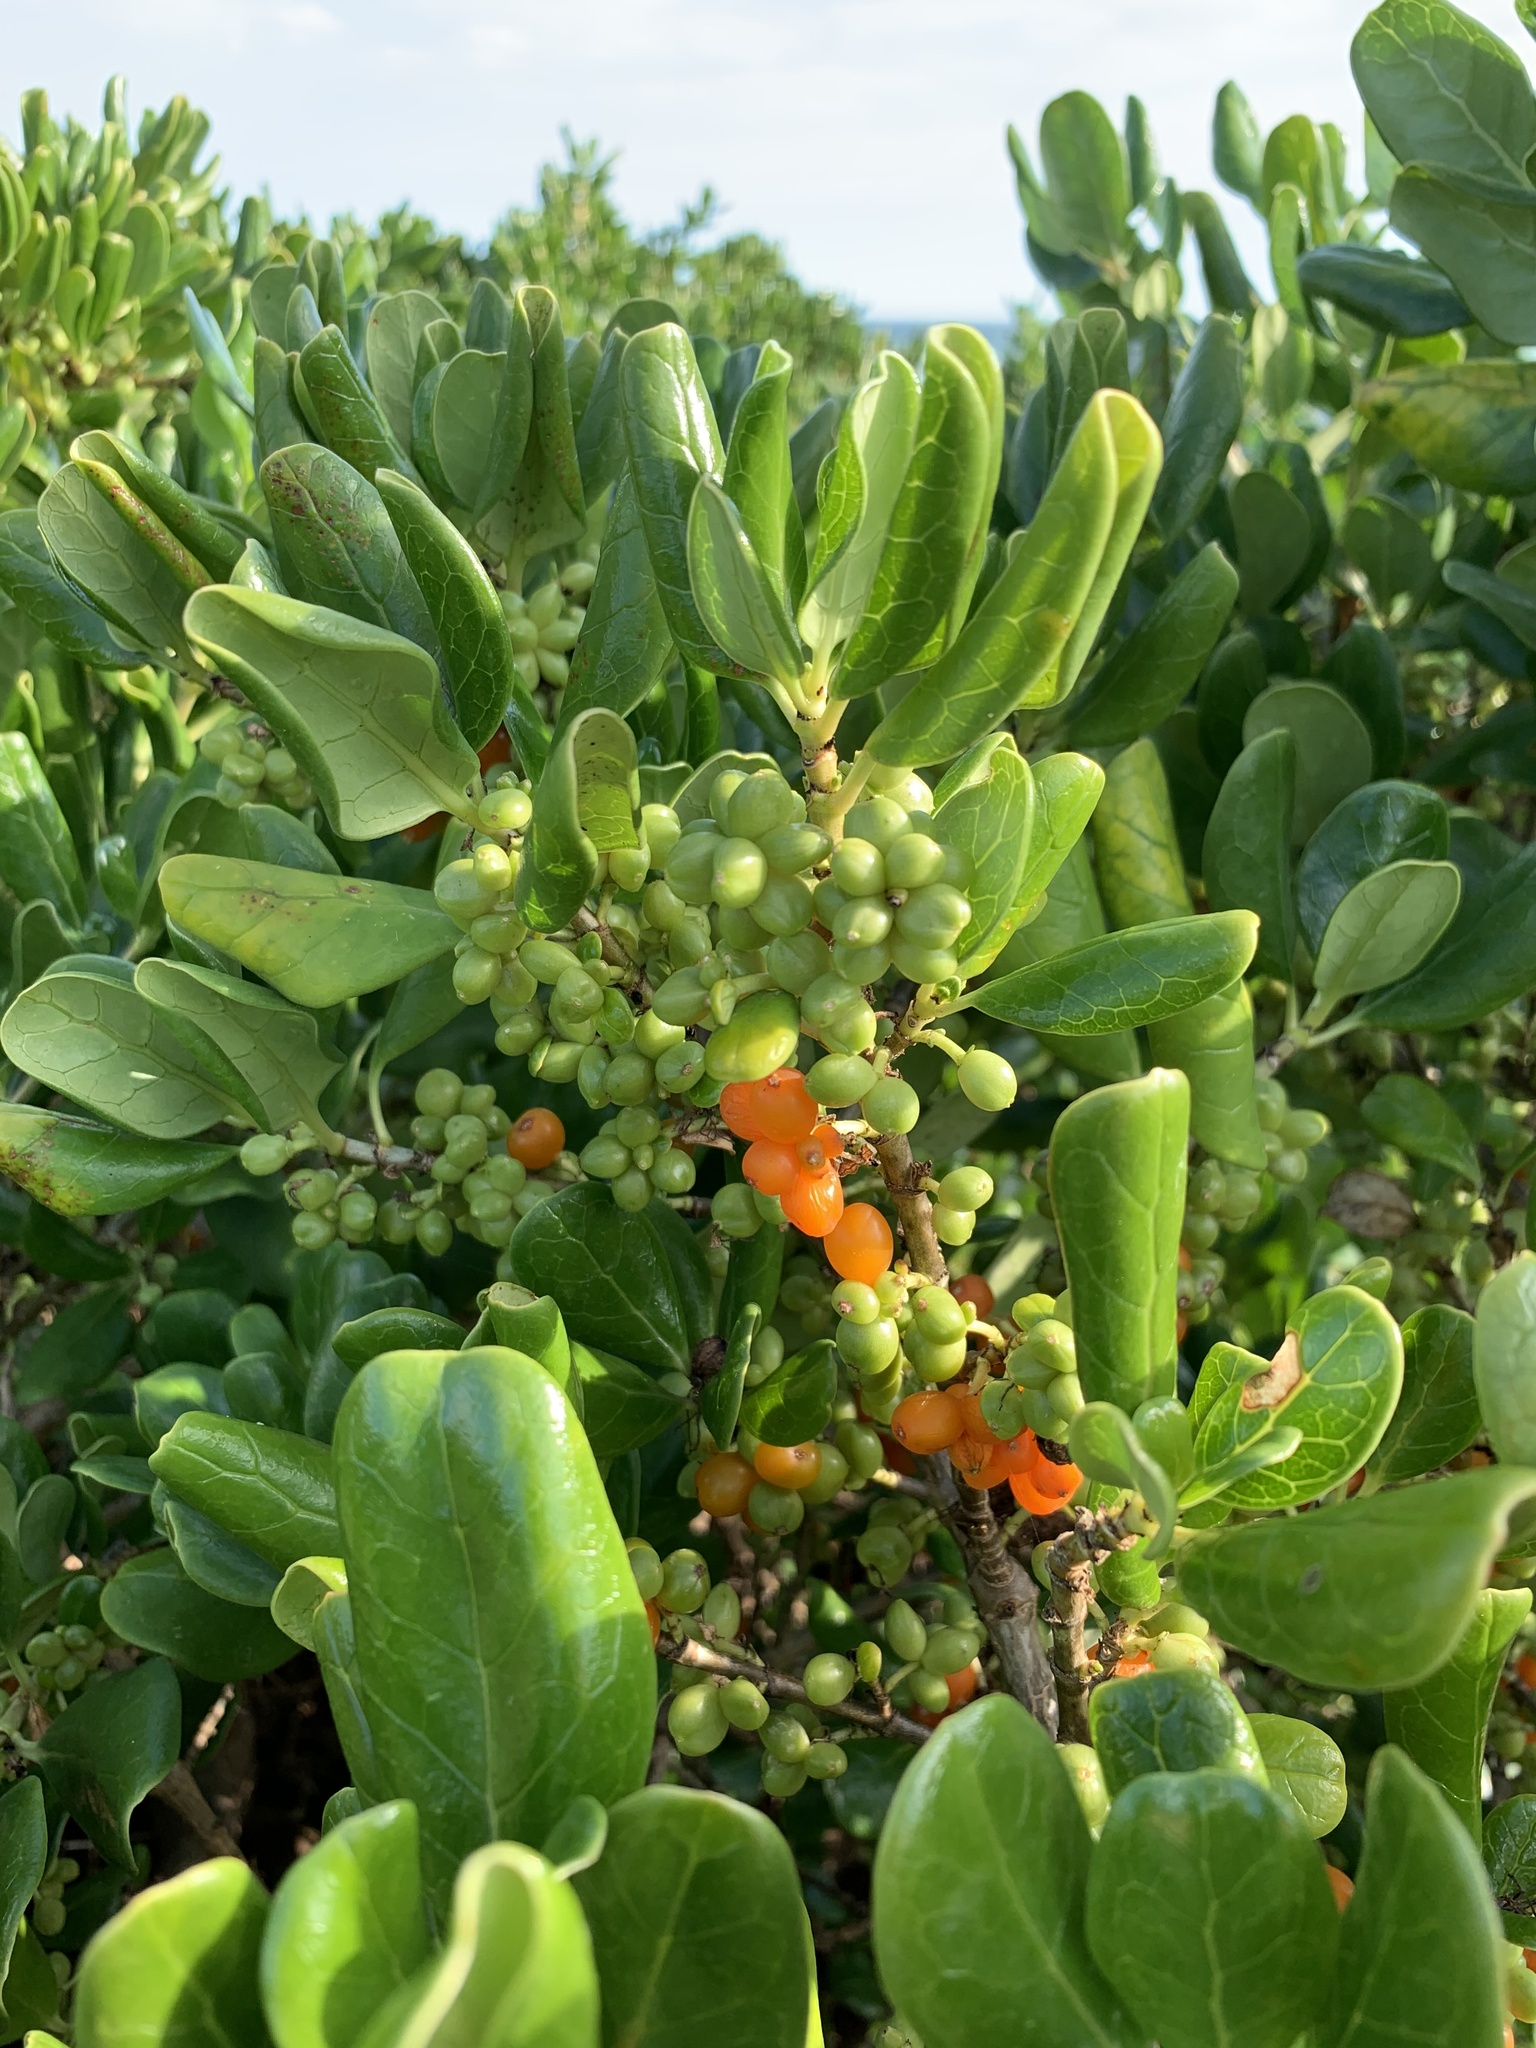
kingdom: Plantae
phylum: Tracheophyta
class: Magnoliopsida
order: Gentianales
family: Rubiaceae
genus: Coprosma
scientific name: Coprosma repens
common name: Tree bedstraw
